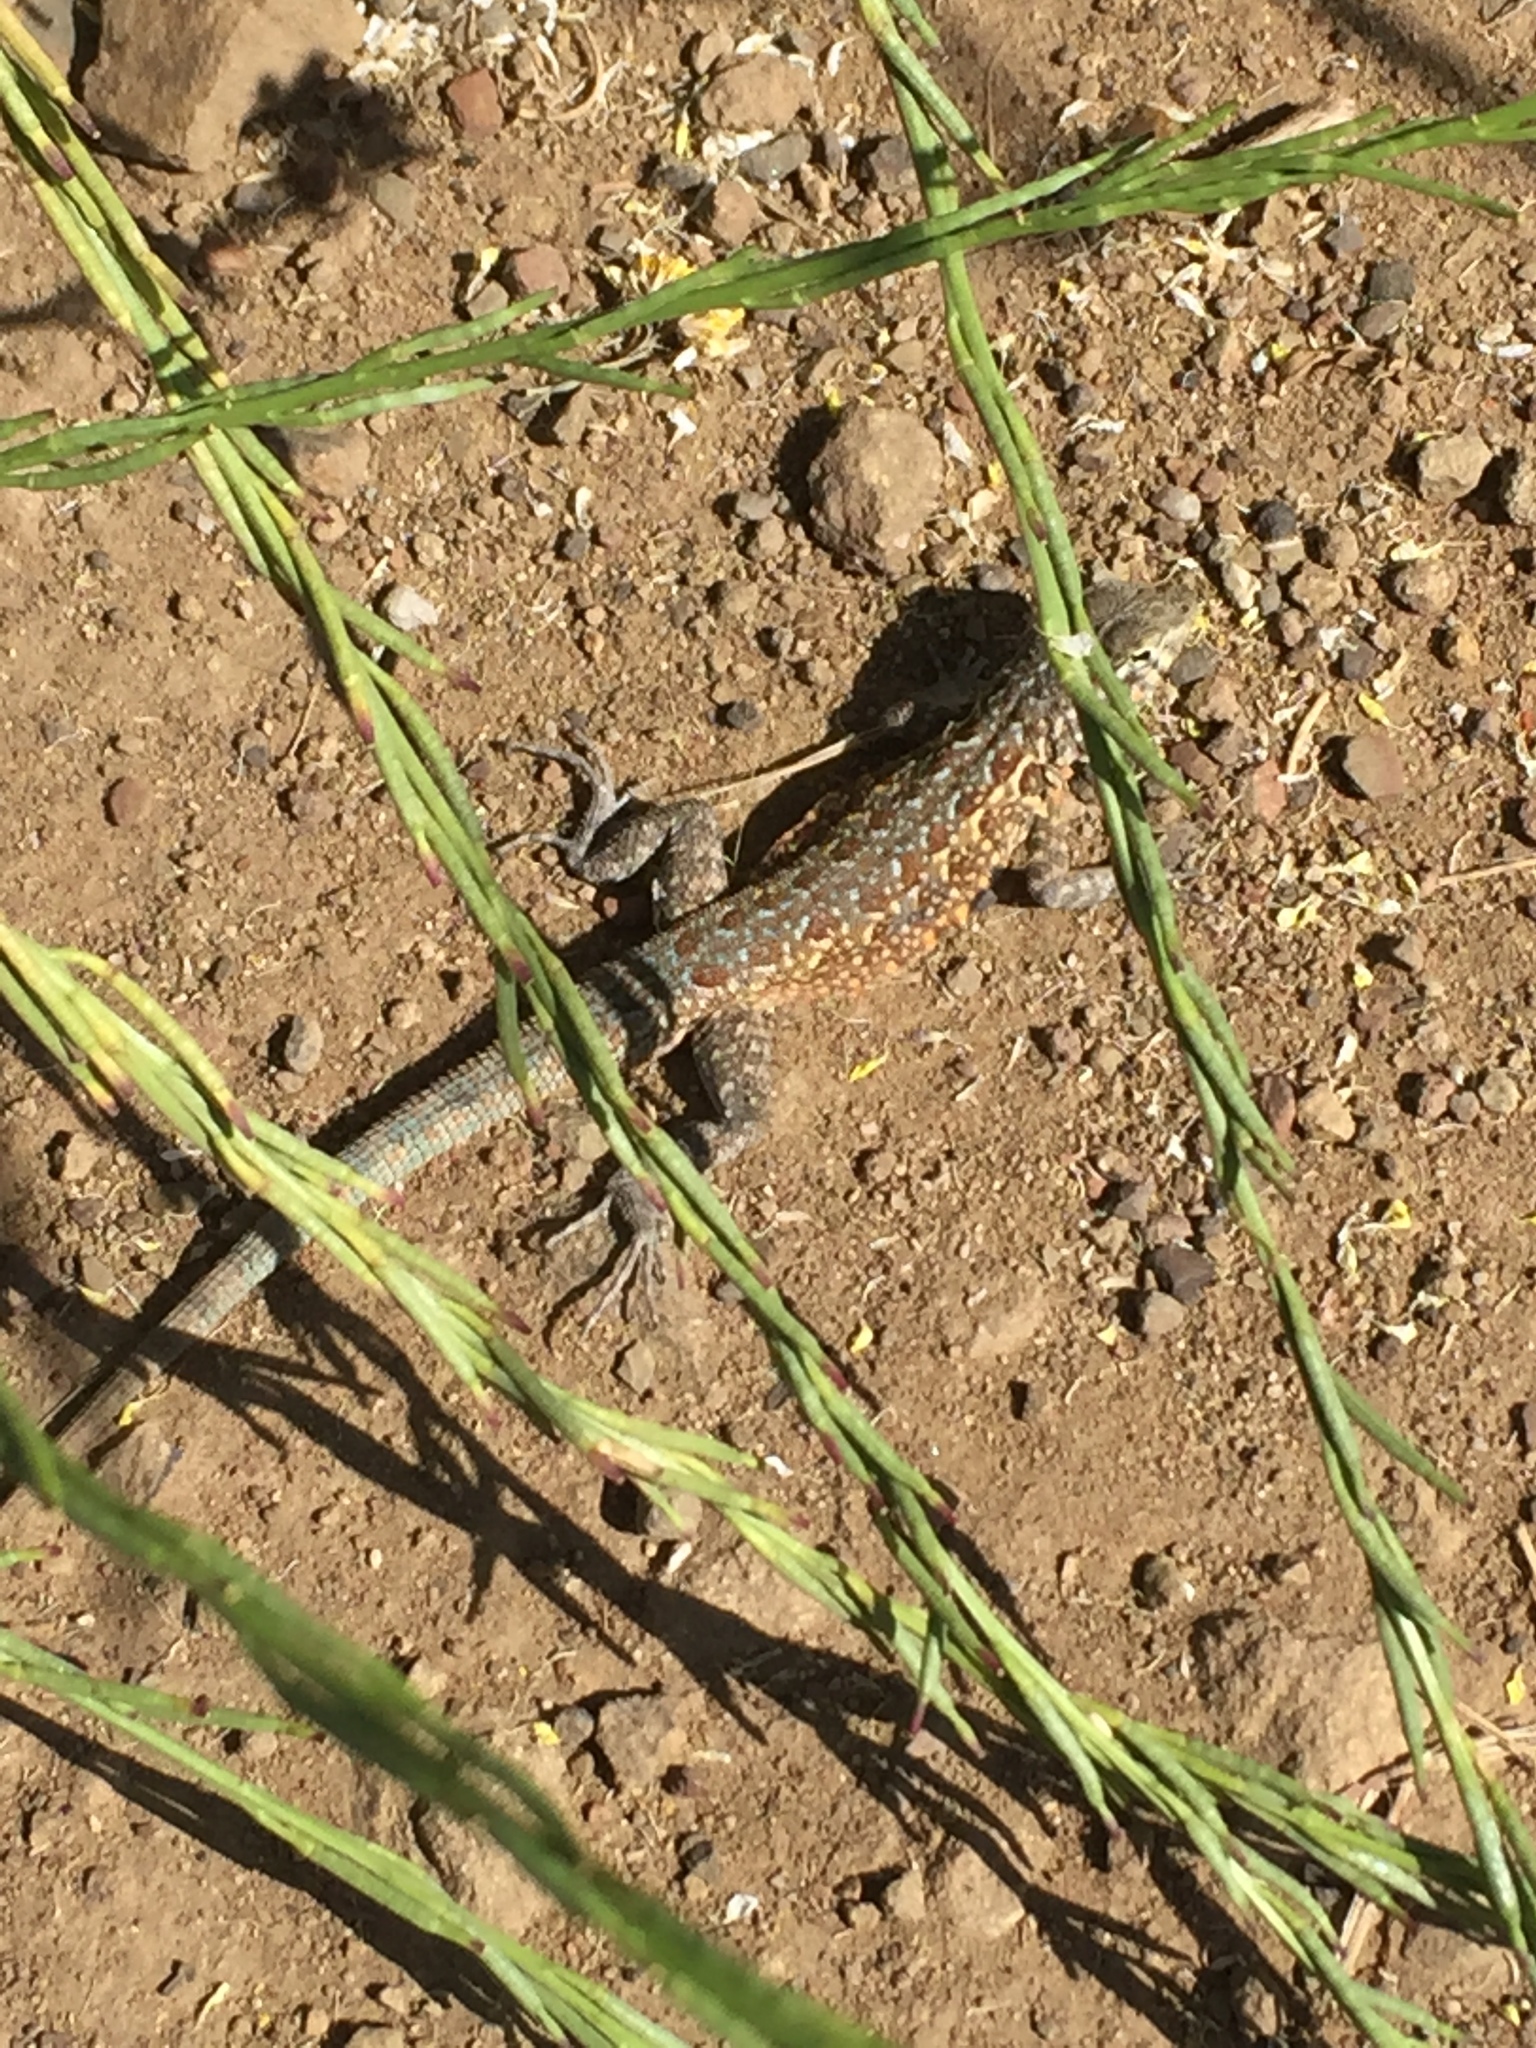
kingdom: Animalia
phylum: Chordata
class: Squamata
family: Phrynosomatidae
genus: Uta
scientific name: Uta stansburiana
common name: Side-blotched lizard
